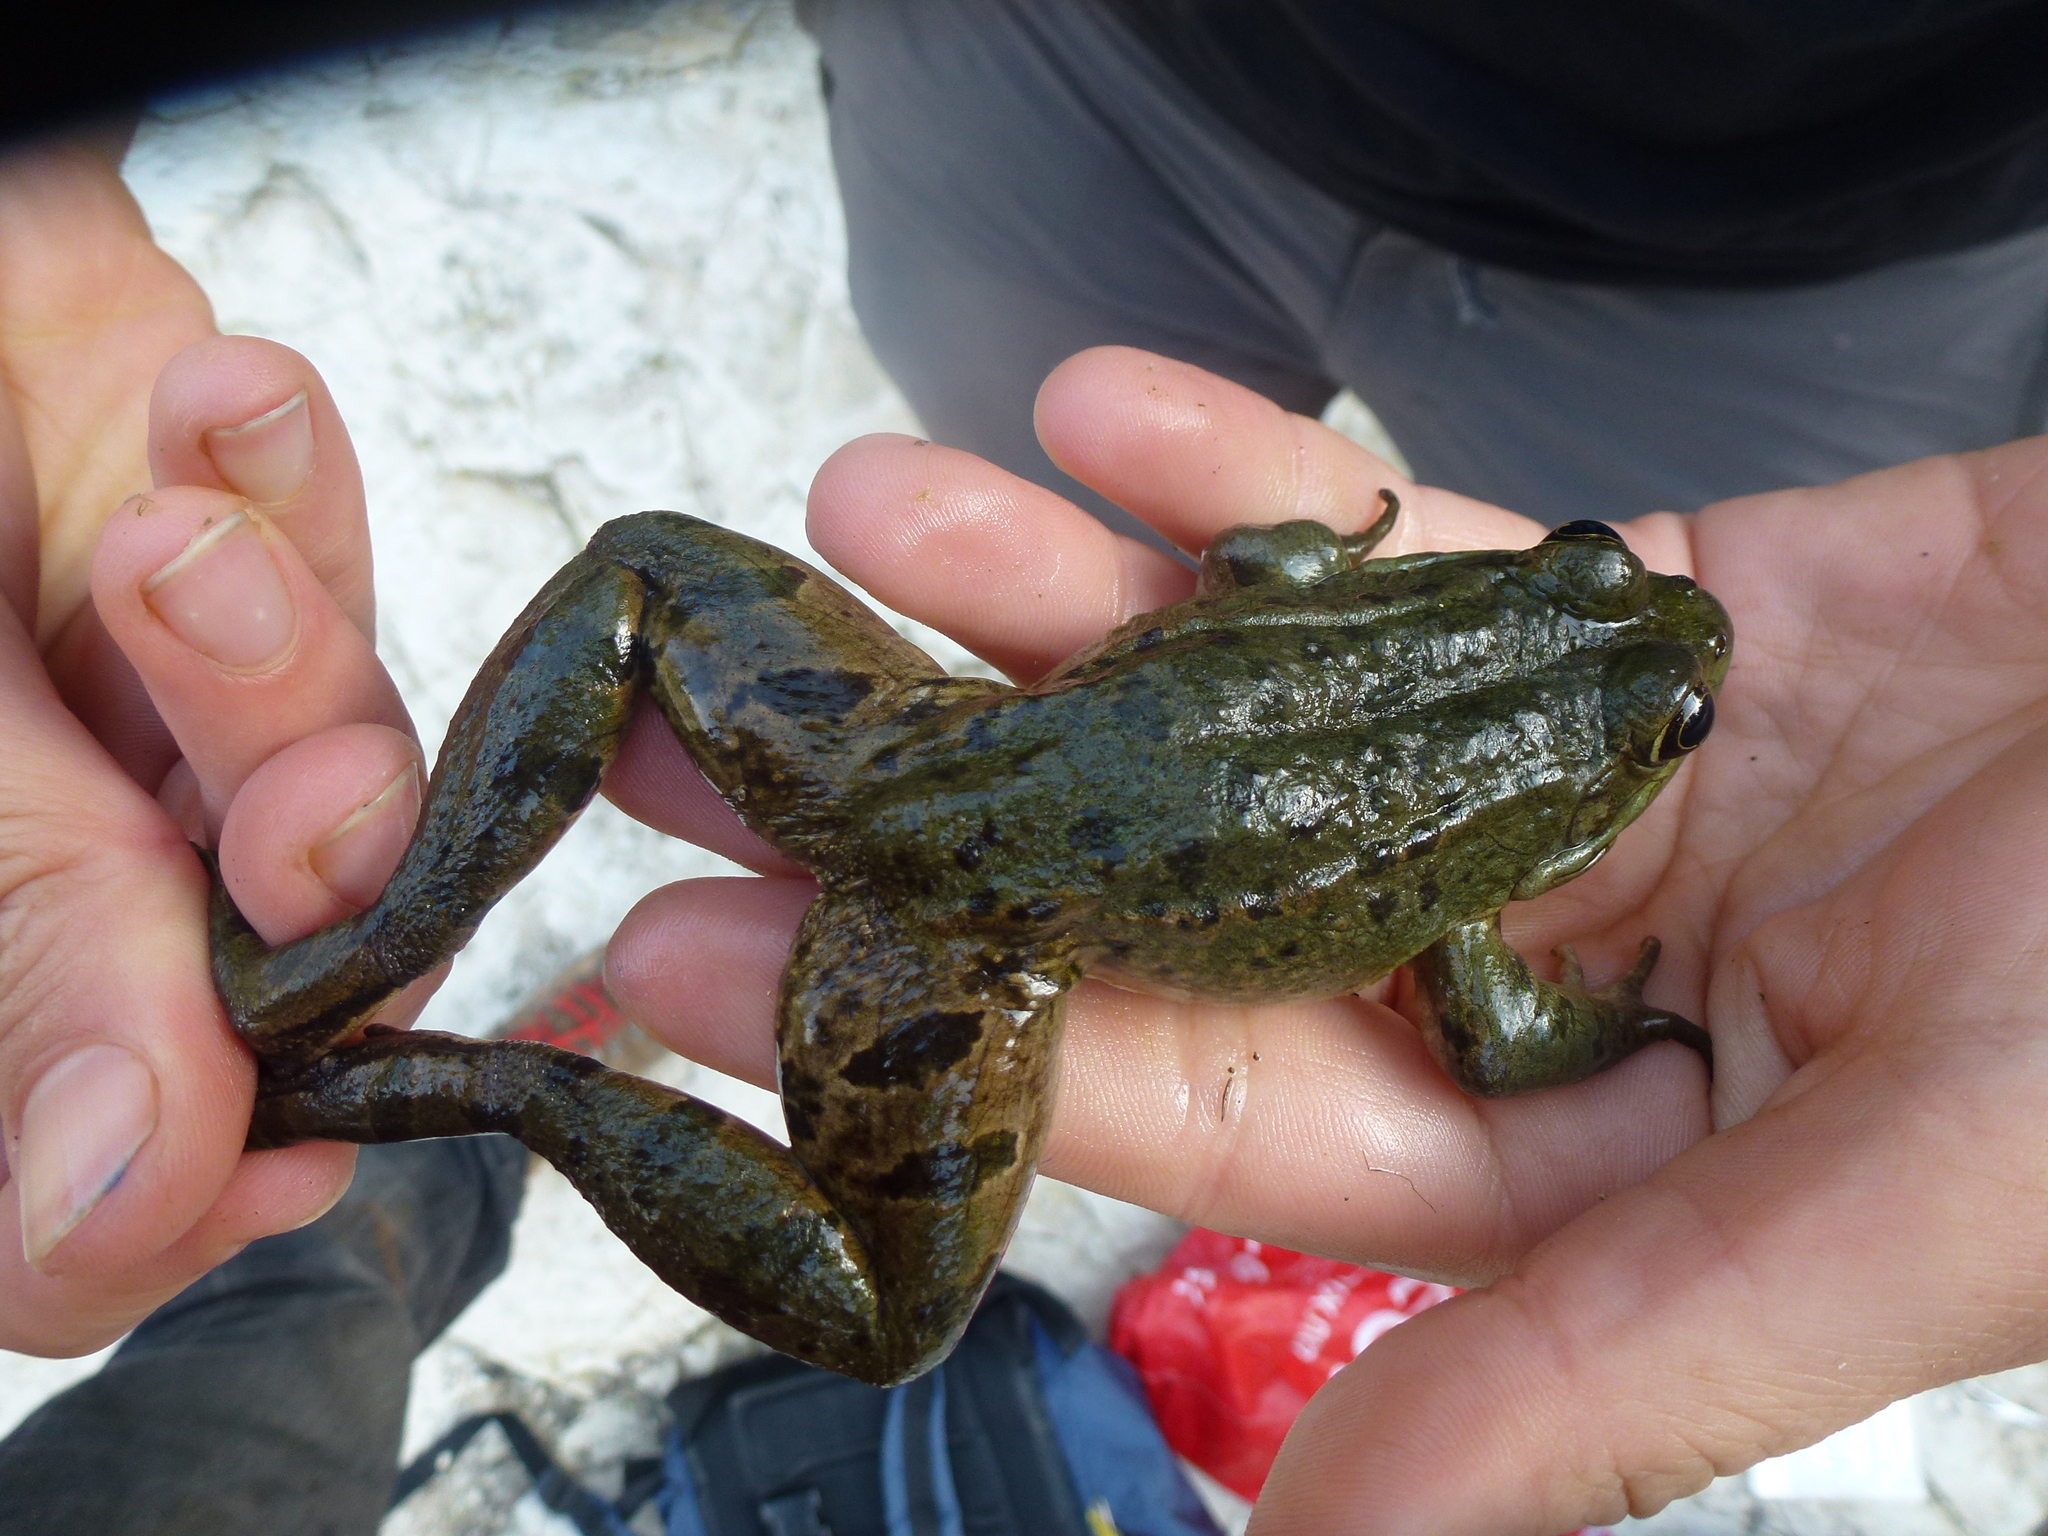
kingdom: Animalia
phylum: Chordata
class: Amphibia
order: Anura
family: Ranidae
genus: Pelophylax
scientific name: Pelophylax ridibundus
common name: Marsh frog
